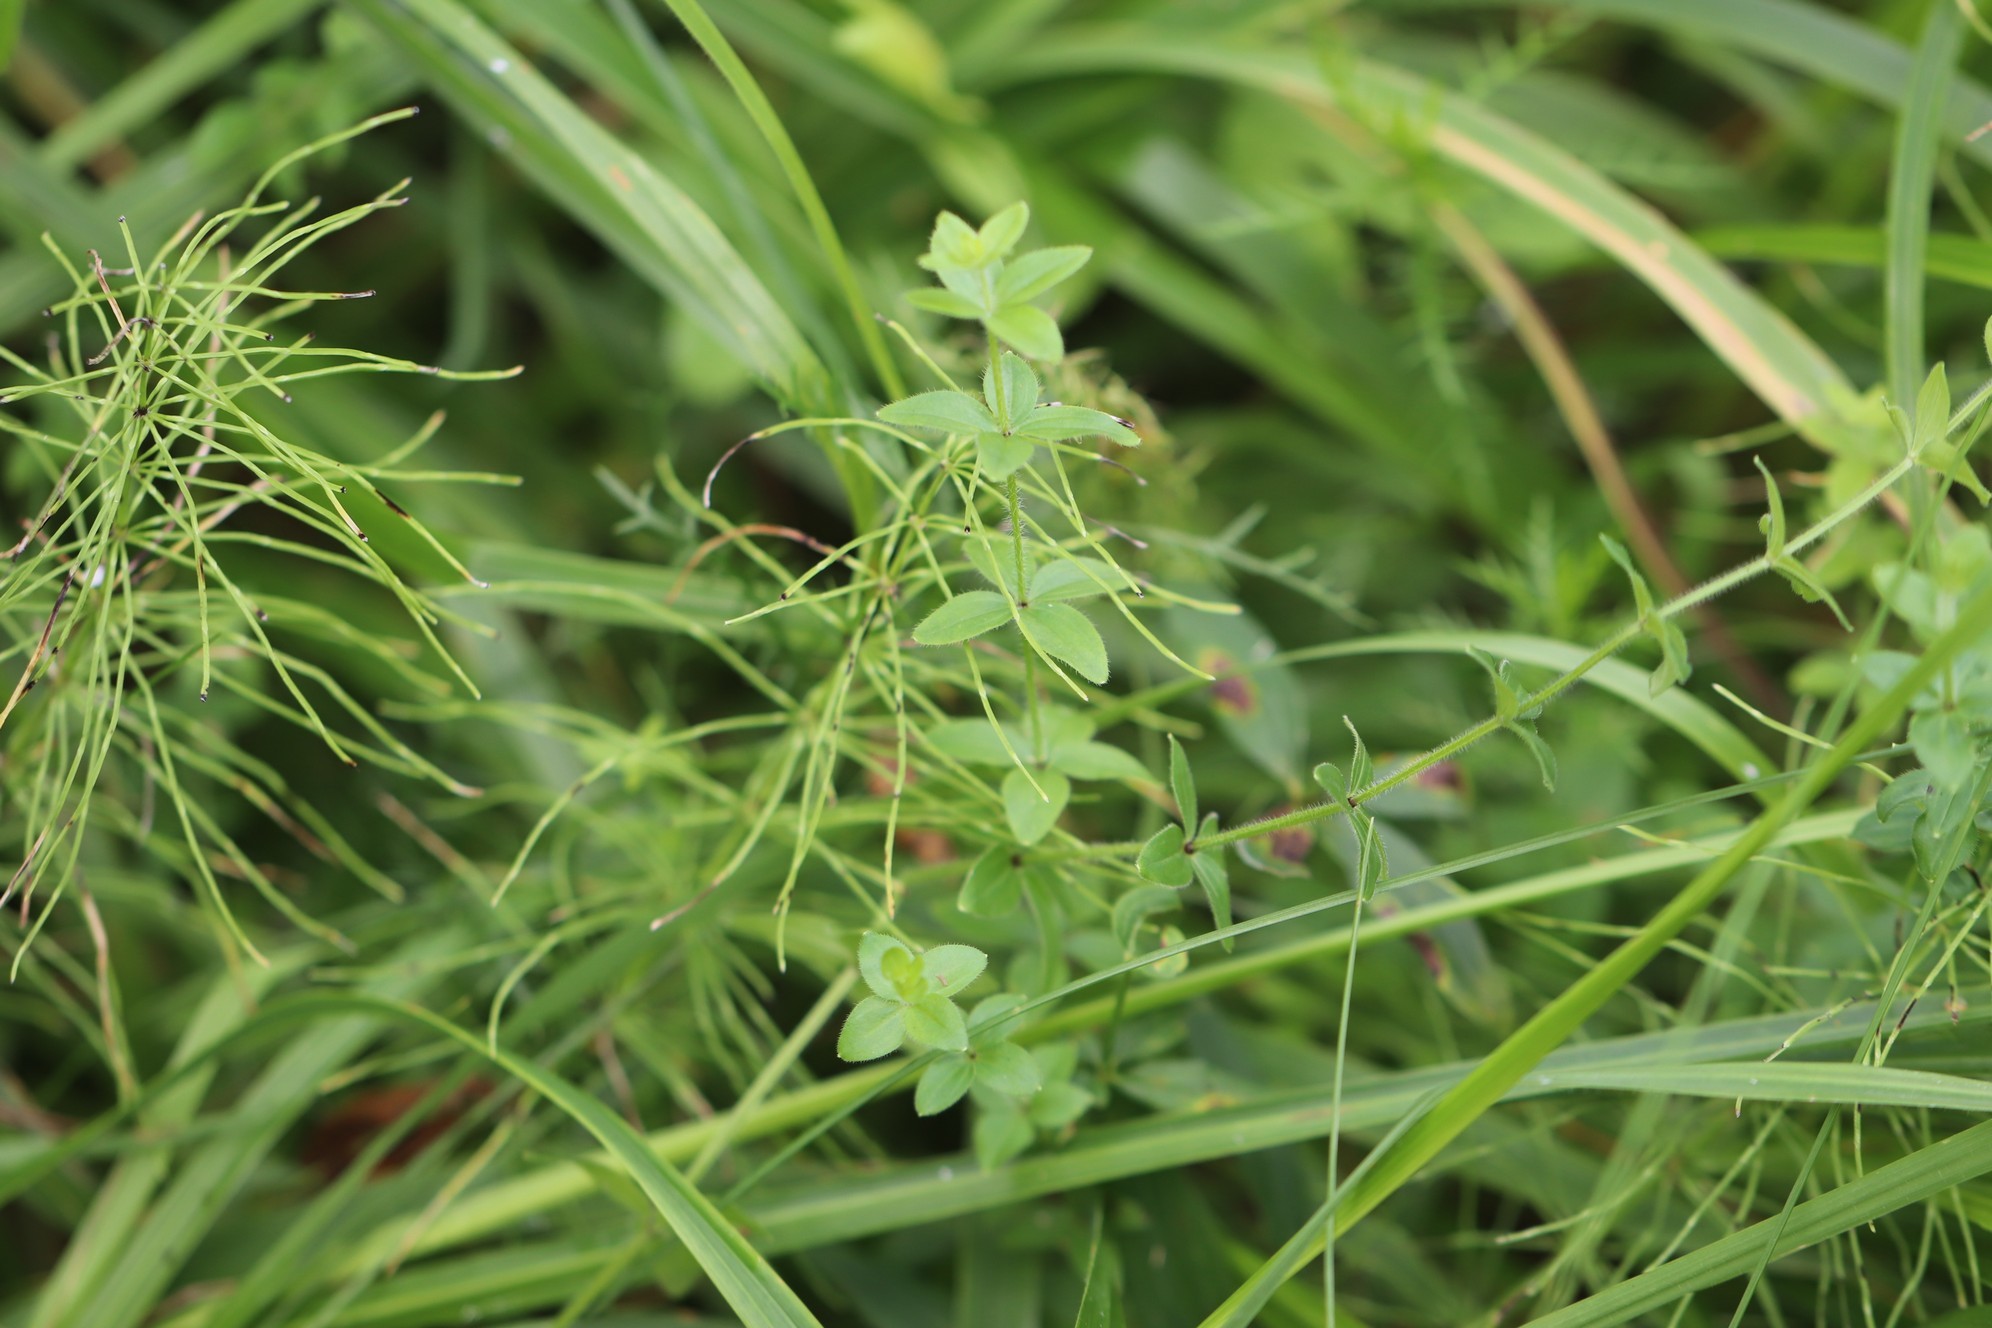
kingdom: Plantae
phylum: Tracheophyta
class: Magnoliopsida
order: Gentianales
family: Rubiaceae
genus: Cruciata
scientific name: Cruciata glabra
